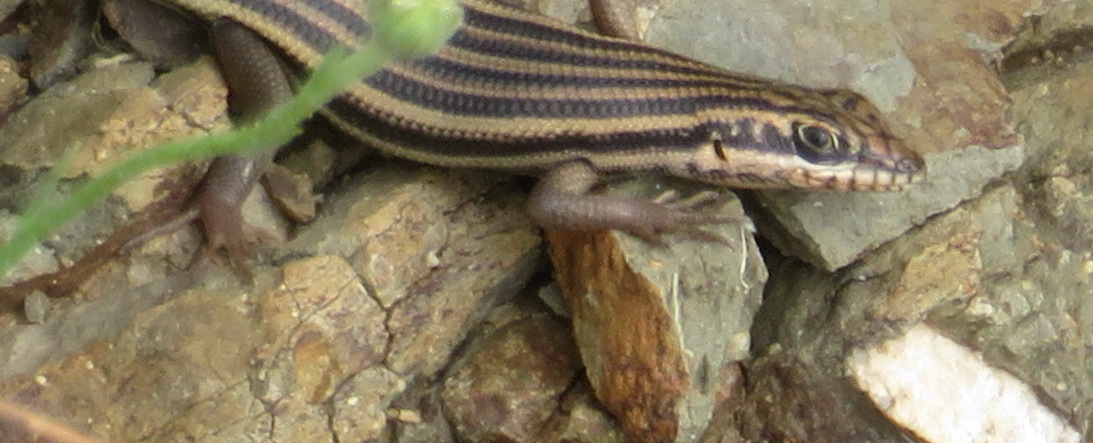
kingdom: Animalia
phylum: Chordata
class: Squamata
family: Scincidae
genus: Trachylepis
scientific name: Trachylepis sulcata
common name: Western rock skink
